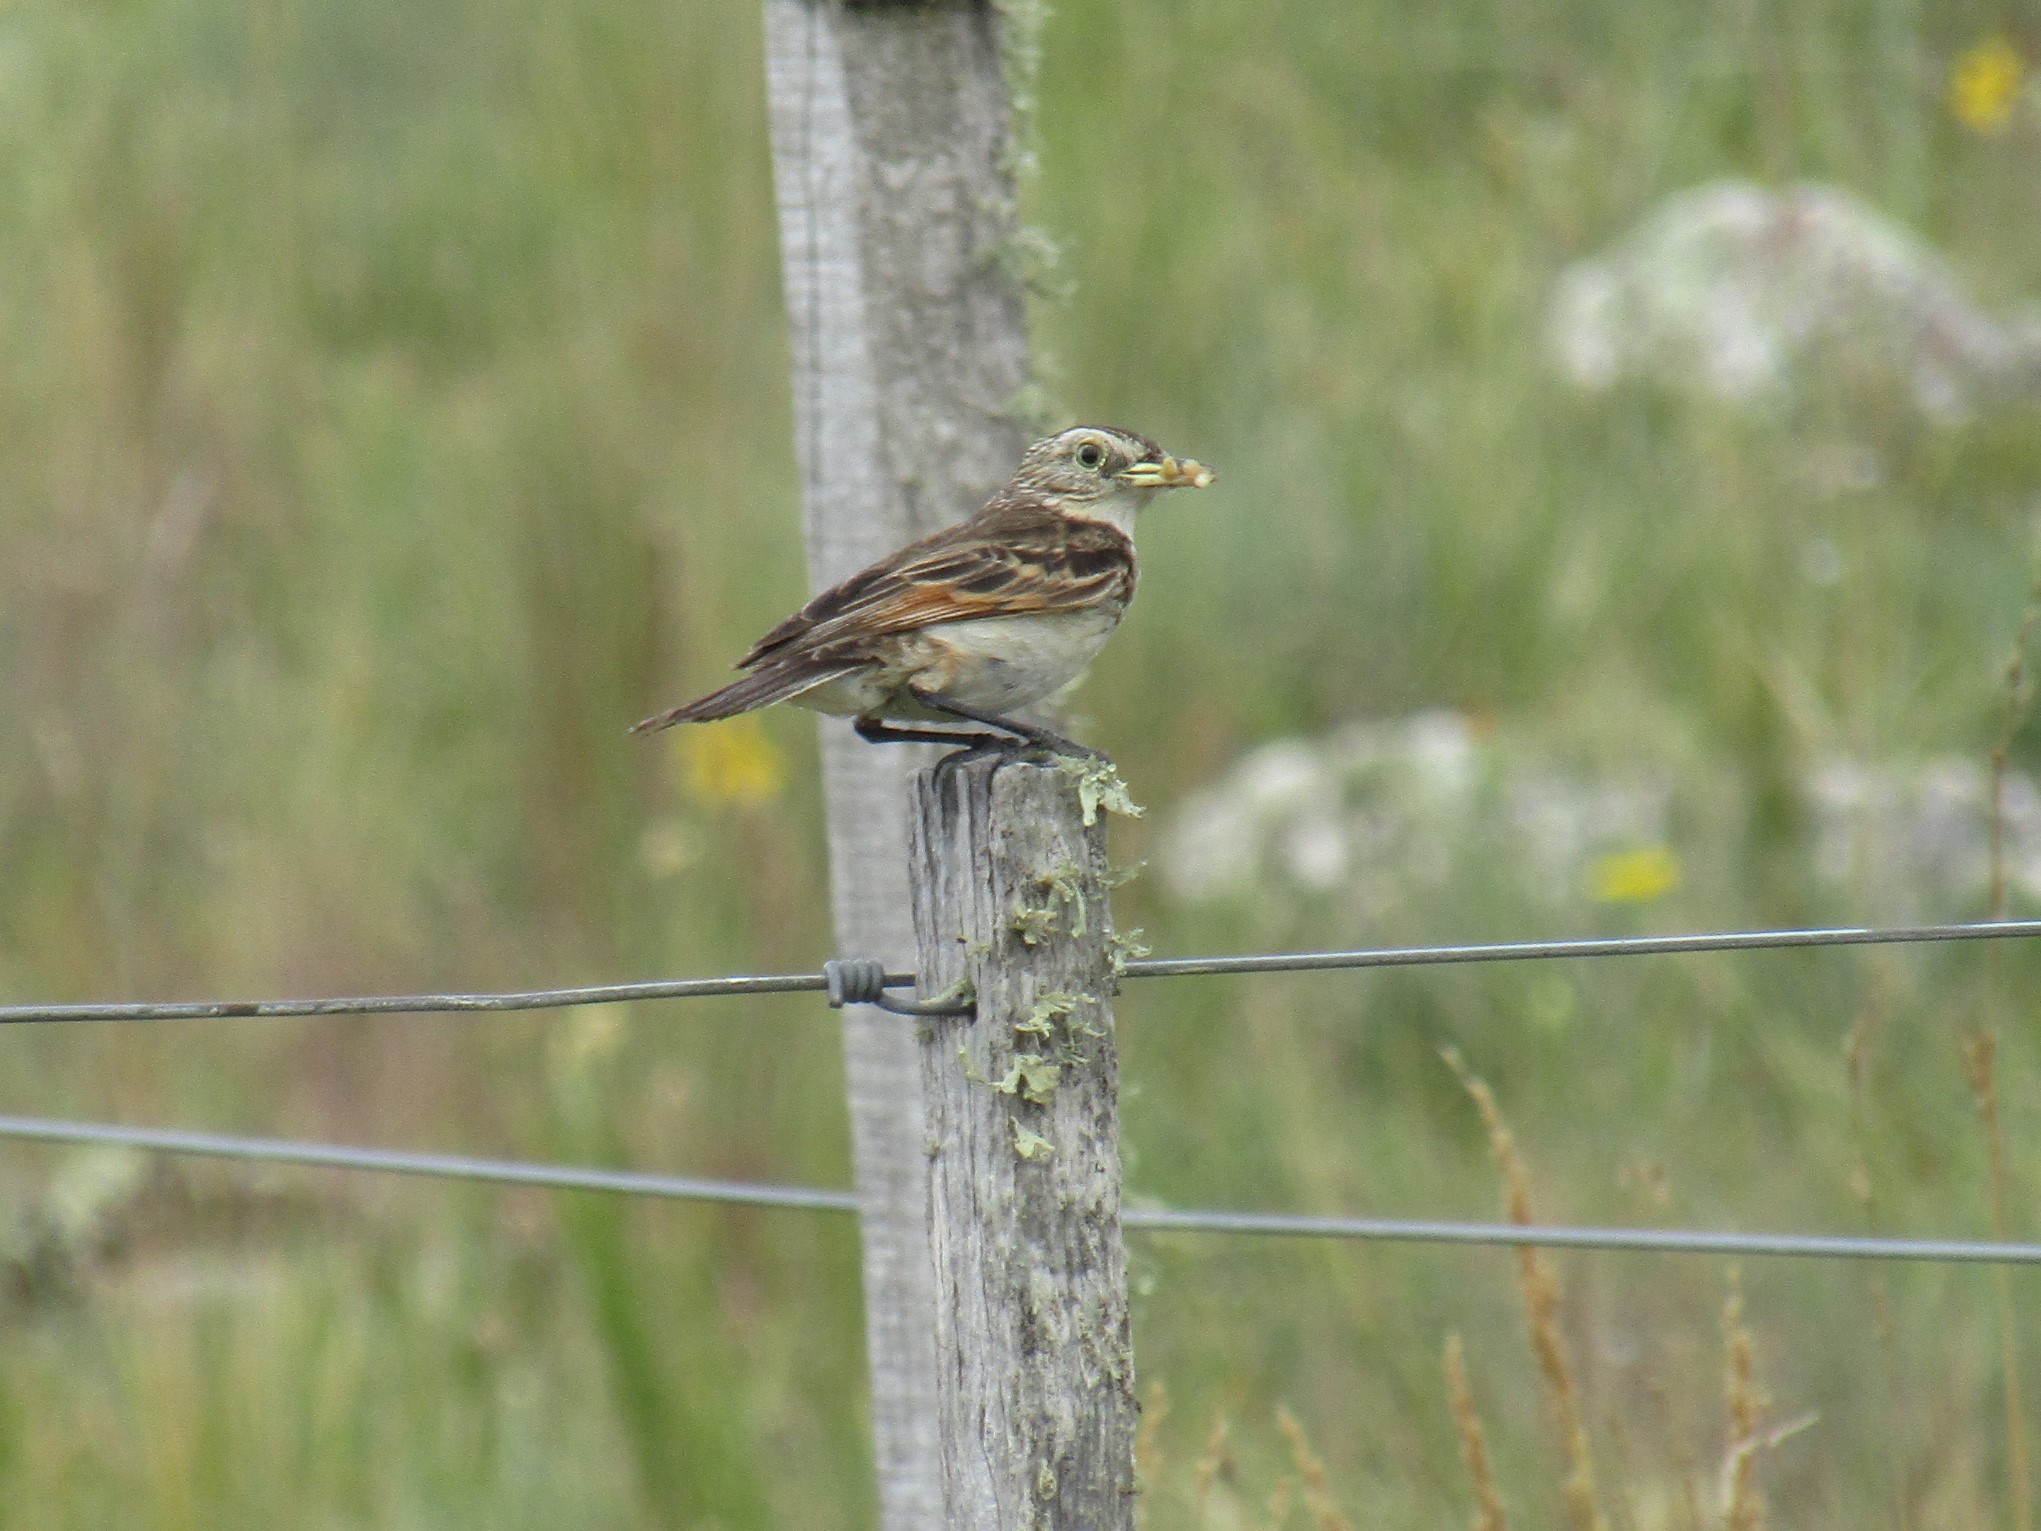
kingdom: Animalia
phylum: Chordata
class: Aves
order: Passeriformes
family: Tyrannidae
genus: Hymenops
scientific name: Hymenops perspicillatus
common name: Spectacled tyrant
